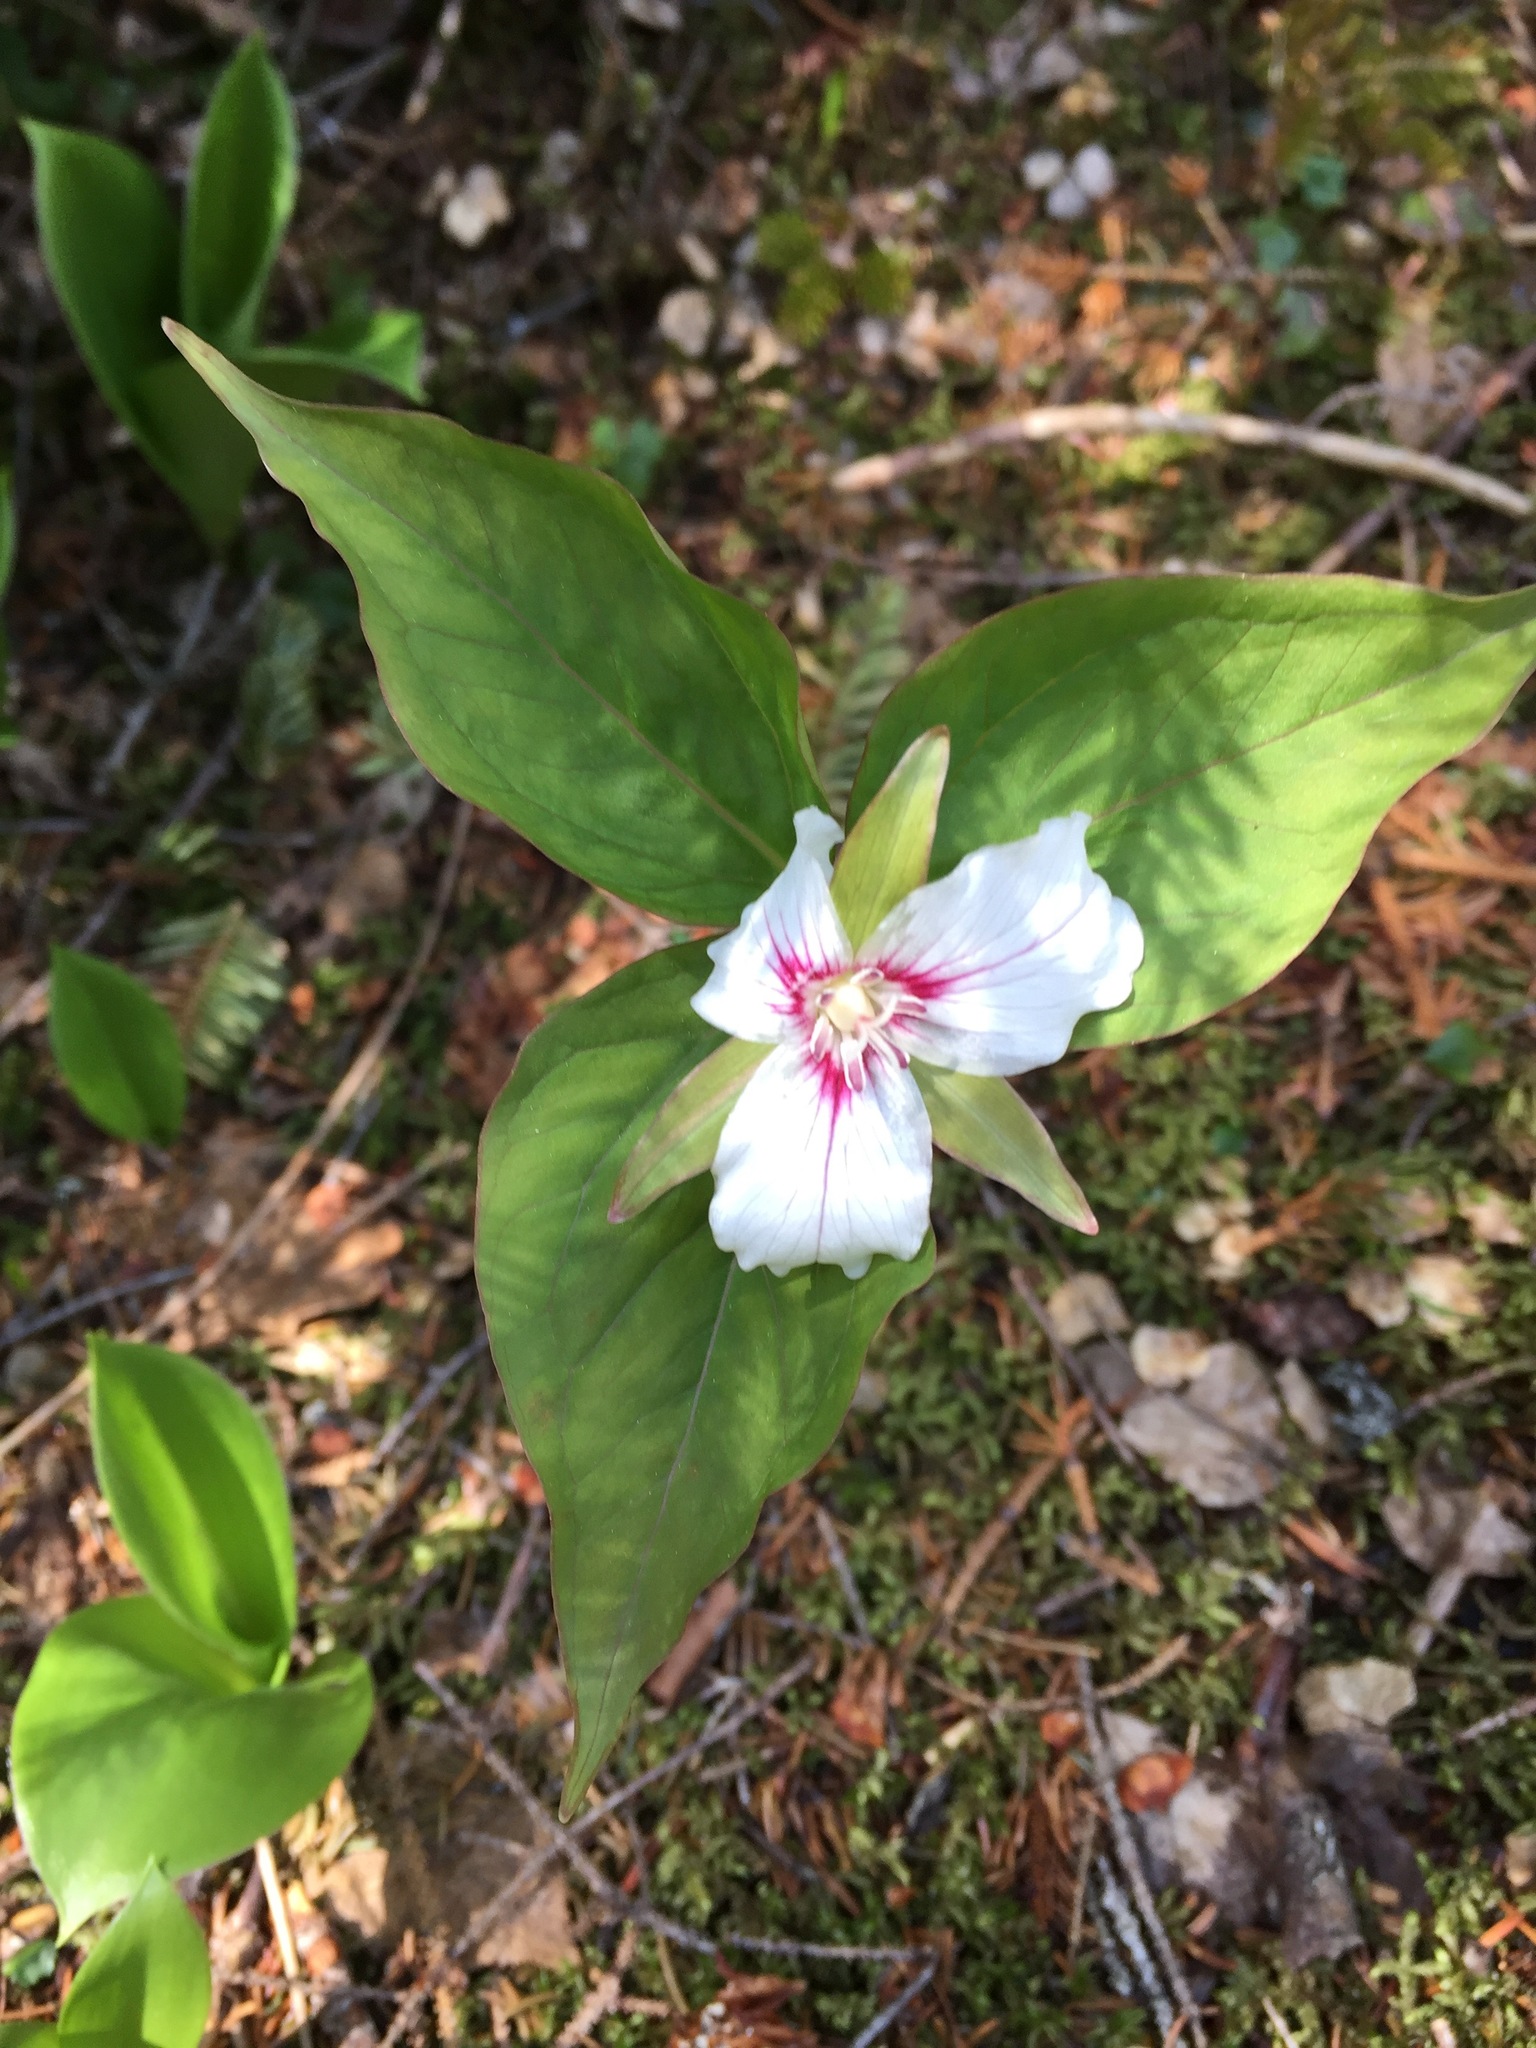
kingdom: Plantae
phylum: Tracheophyta
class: Liliopsida
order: Liliales
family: Melanthiaceae
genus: Trillium
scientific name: Trillium undulatum
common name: Paint trillium
